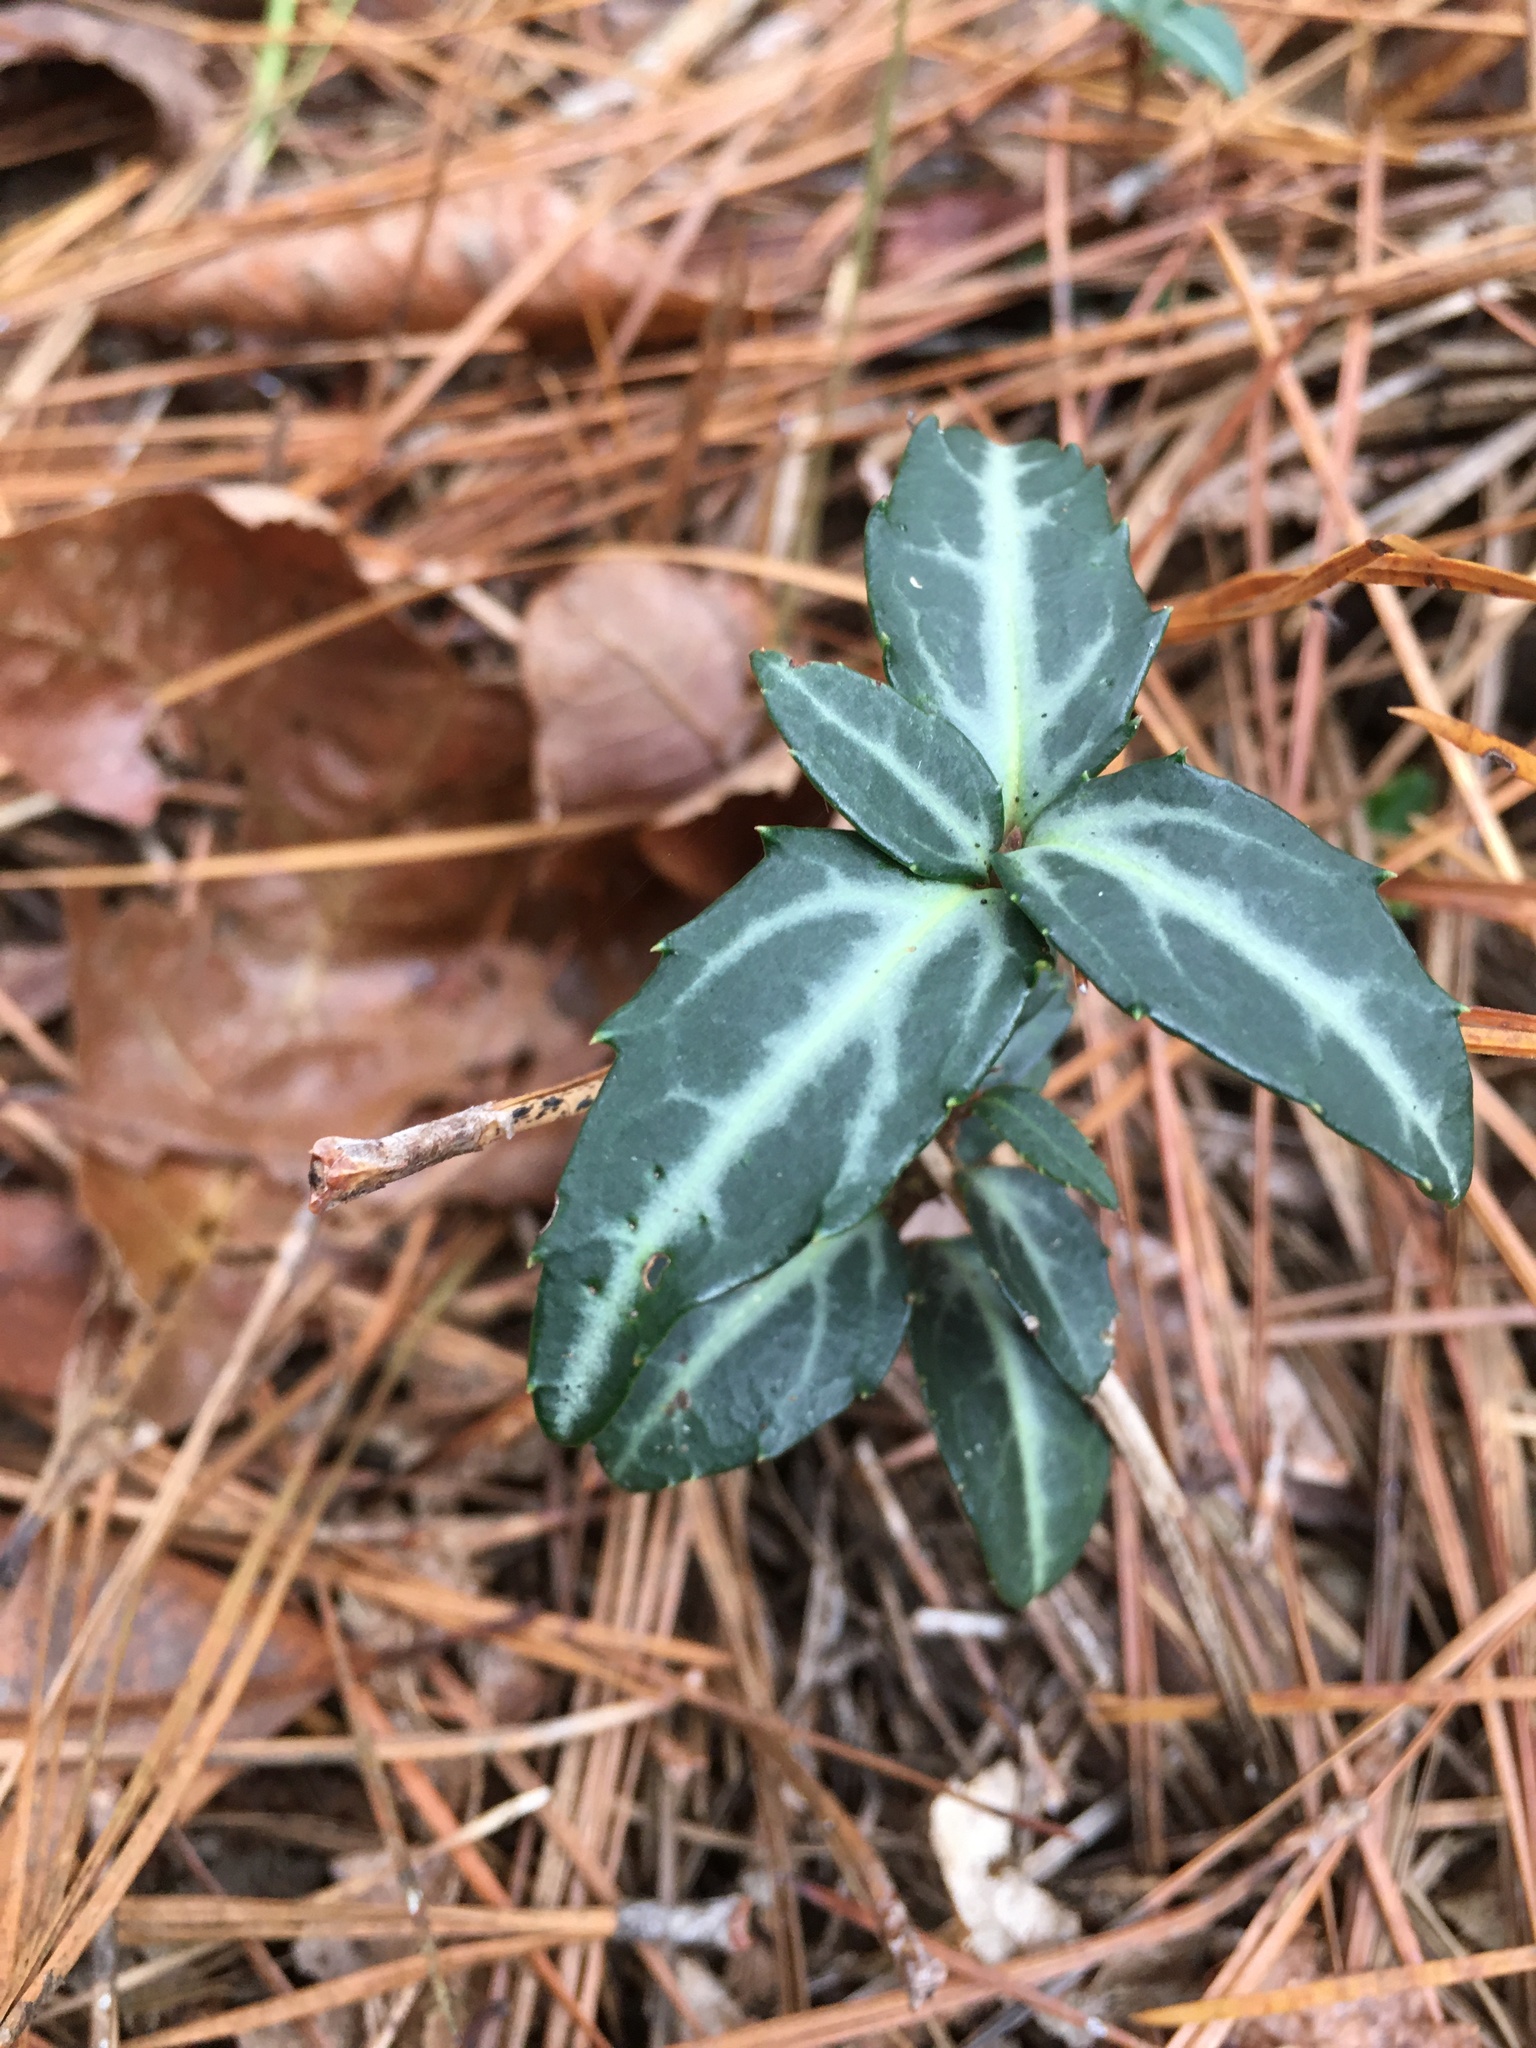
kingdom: Plantae
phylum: Tracheophyta
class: Magnoliopsida
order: Ericales
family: Ericaceae
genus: Chimaphila
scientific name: Chimaphila maculata
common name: Spotted pipsissewa
